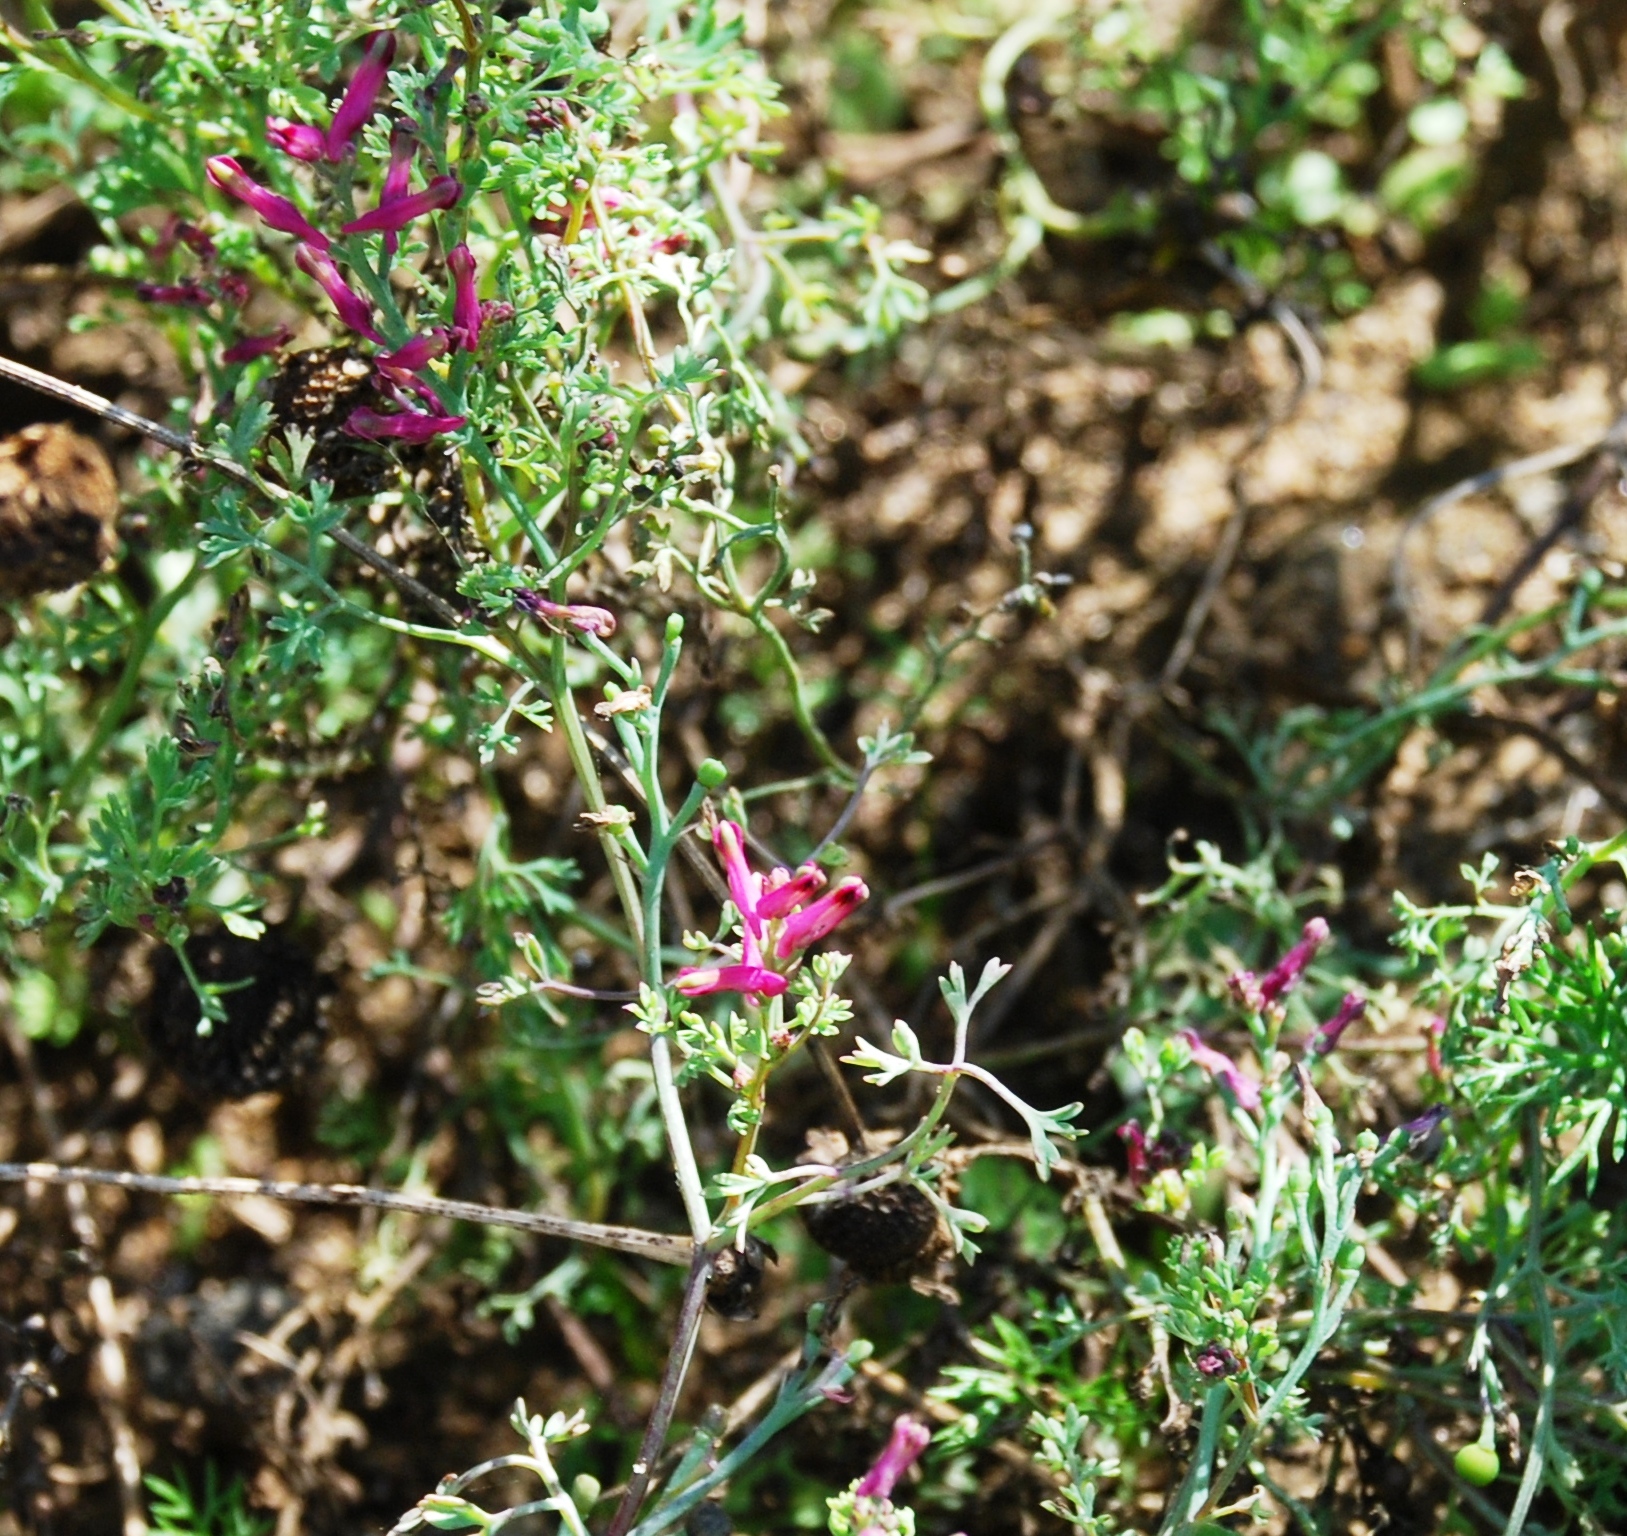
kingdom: Plantae
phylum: Tracheophyta
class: Magnoliopsida
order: Ranunculales
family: Papaveraceae
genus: Fumaria
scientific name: Fumaria officinalis
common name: Common fumitory
